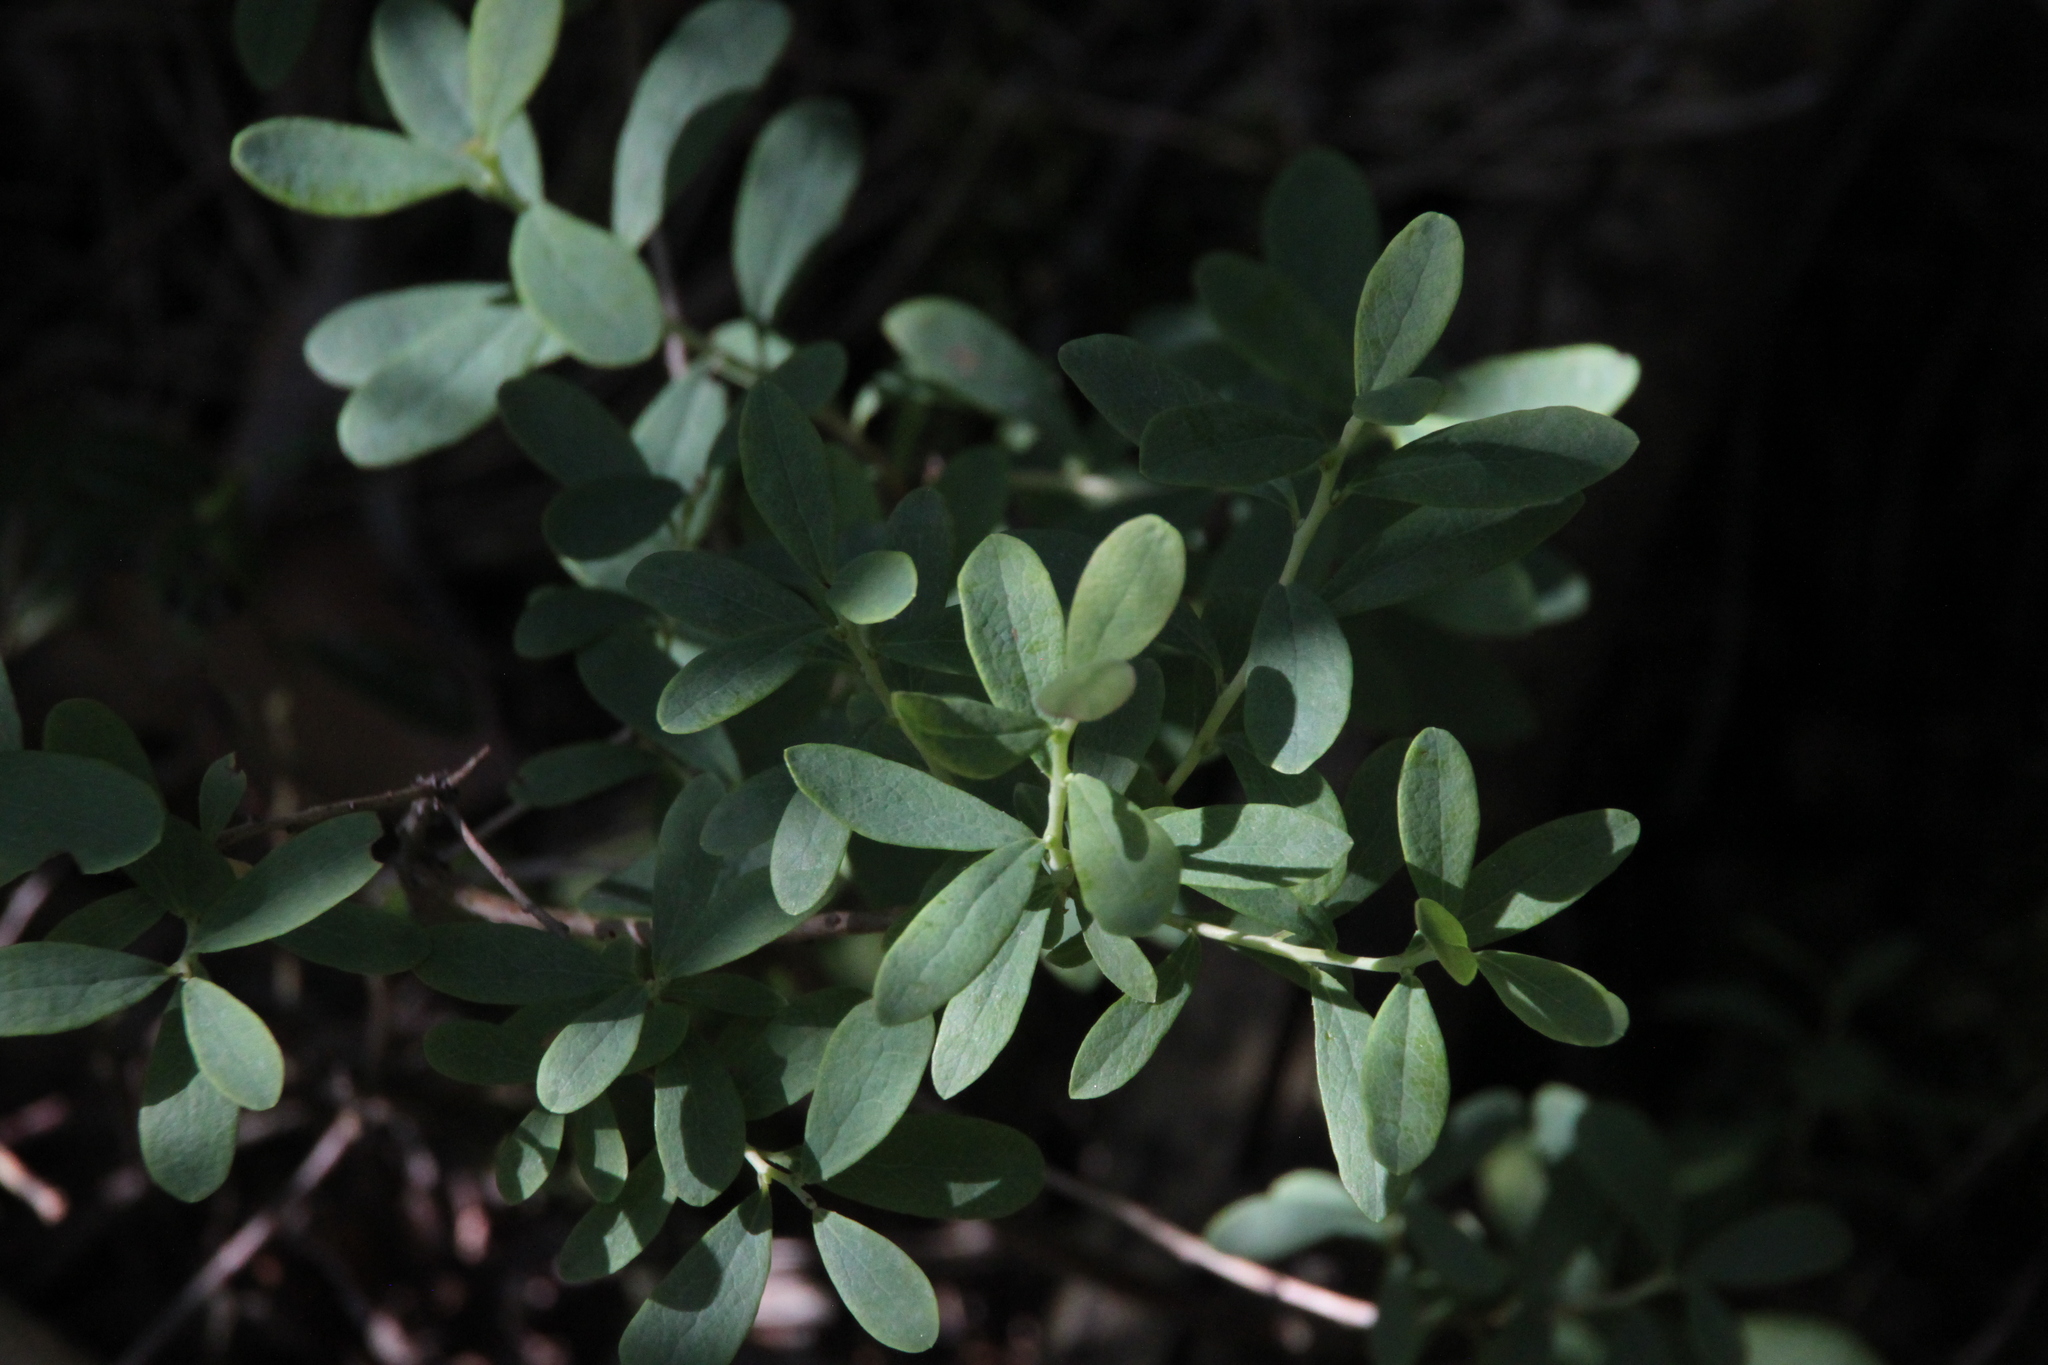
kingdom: Plantae
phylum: Tracheophyta
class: Magnoliopsida
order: Ericales
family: Ericaceae
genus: Vaccinium
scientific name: Vaccinium uliginosum
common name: Bog bilberry
